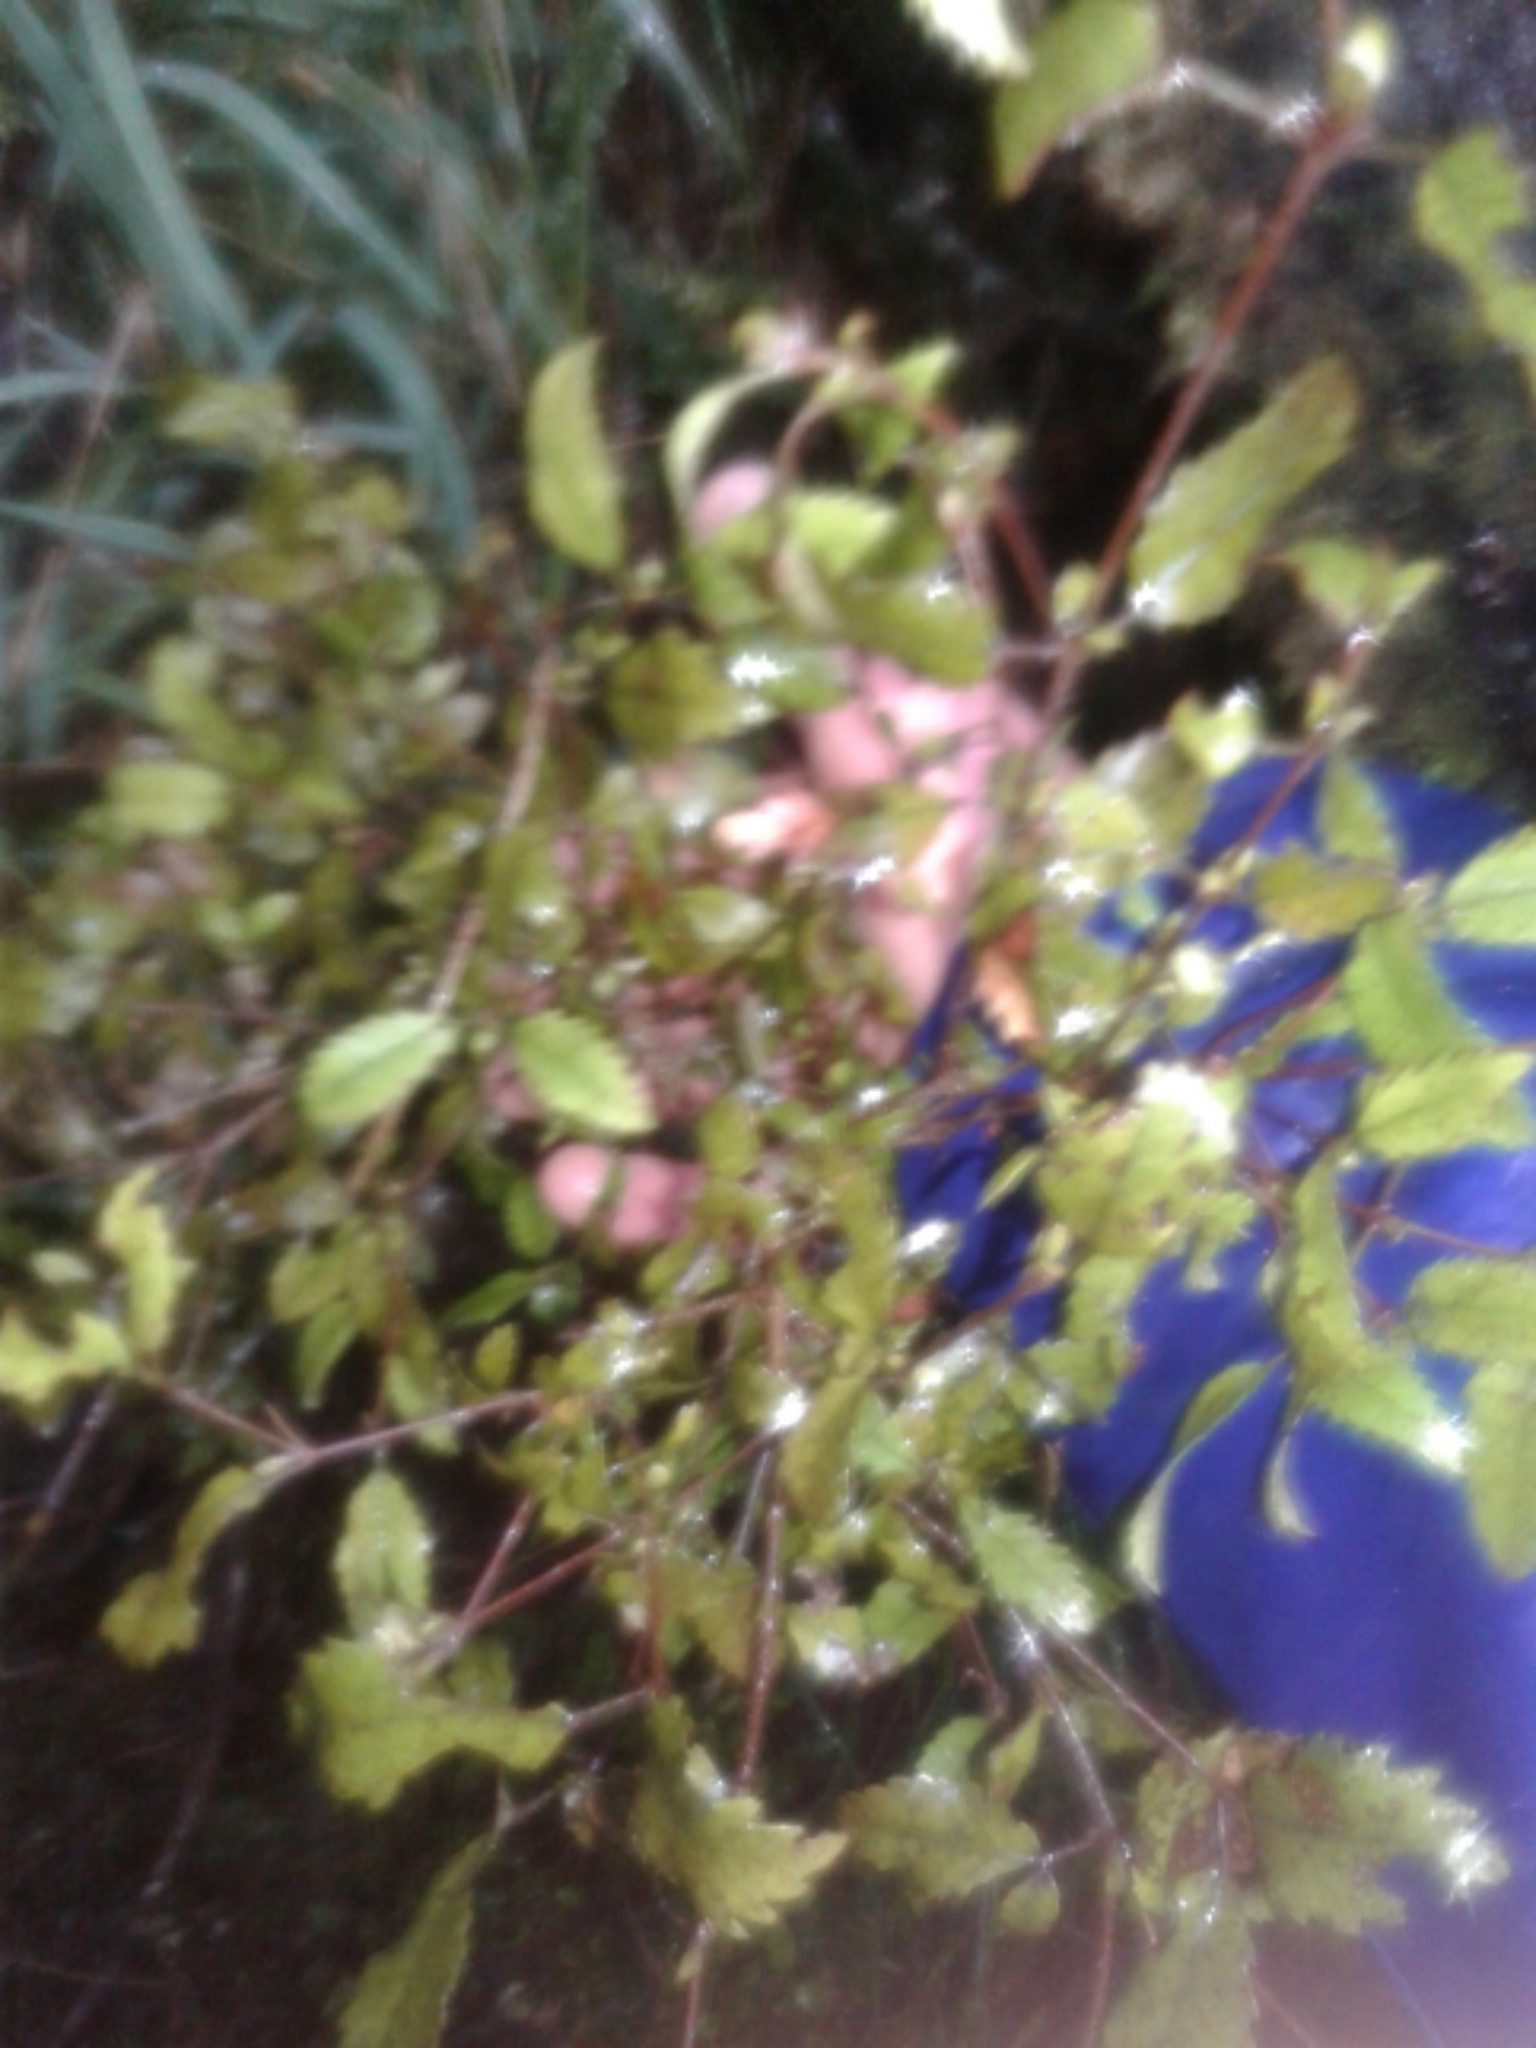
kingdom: Plantae
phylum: Tracheophyta
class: Magnoliopsida
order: Oxalidales
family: Cunoniaceae
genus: Pterophylla
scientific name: Pterophylla racemosa
